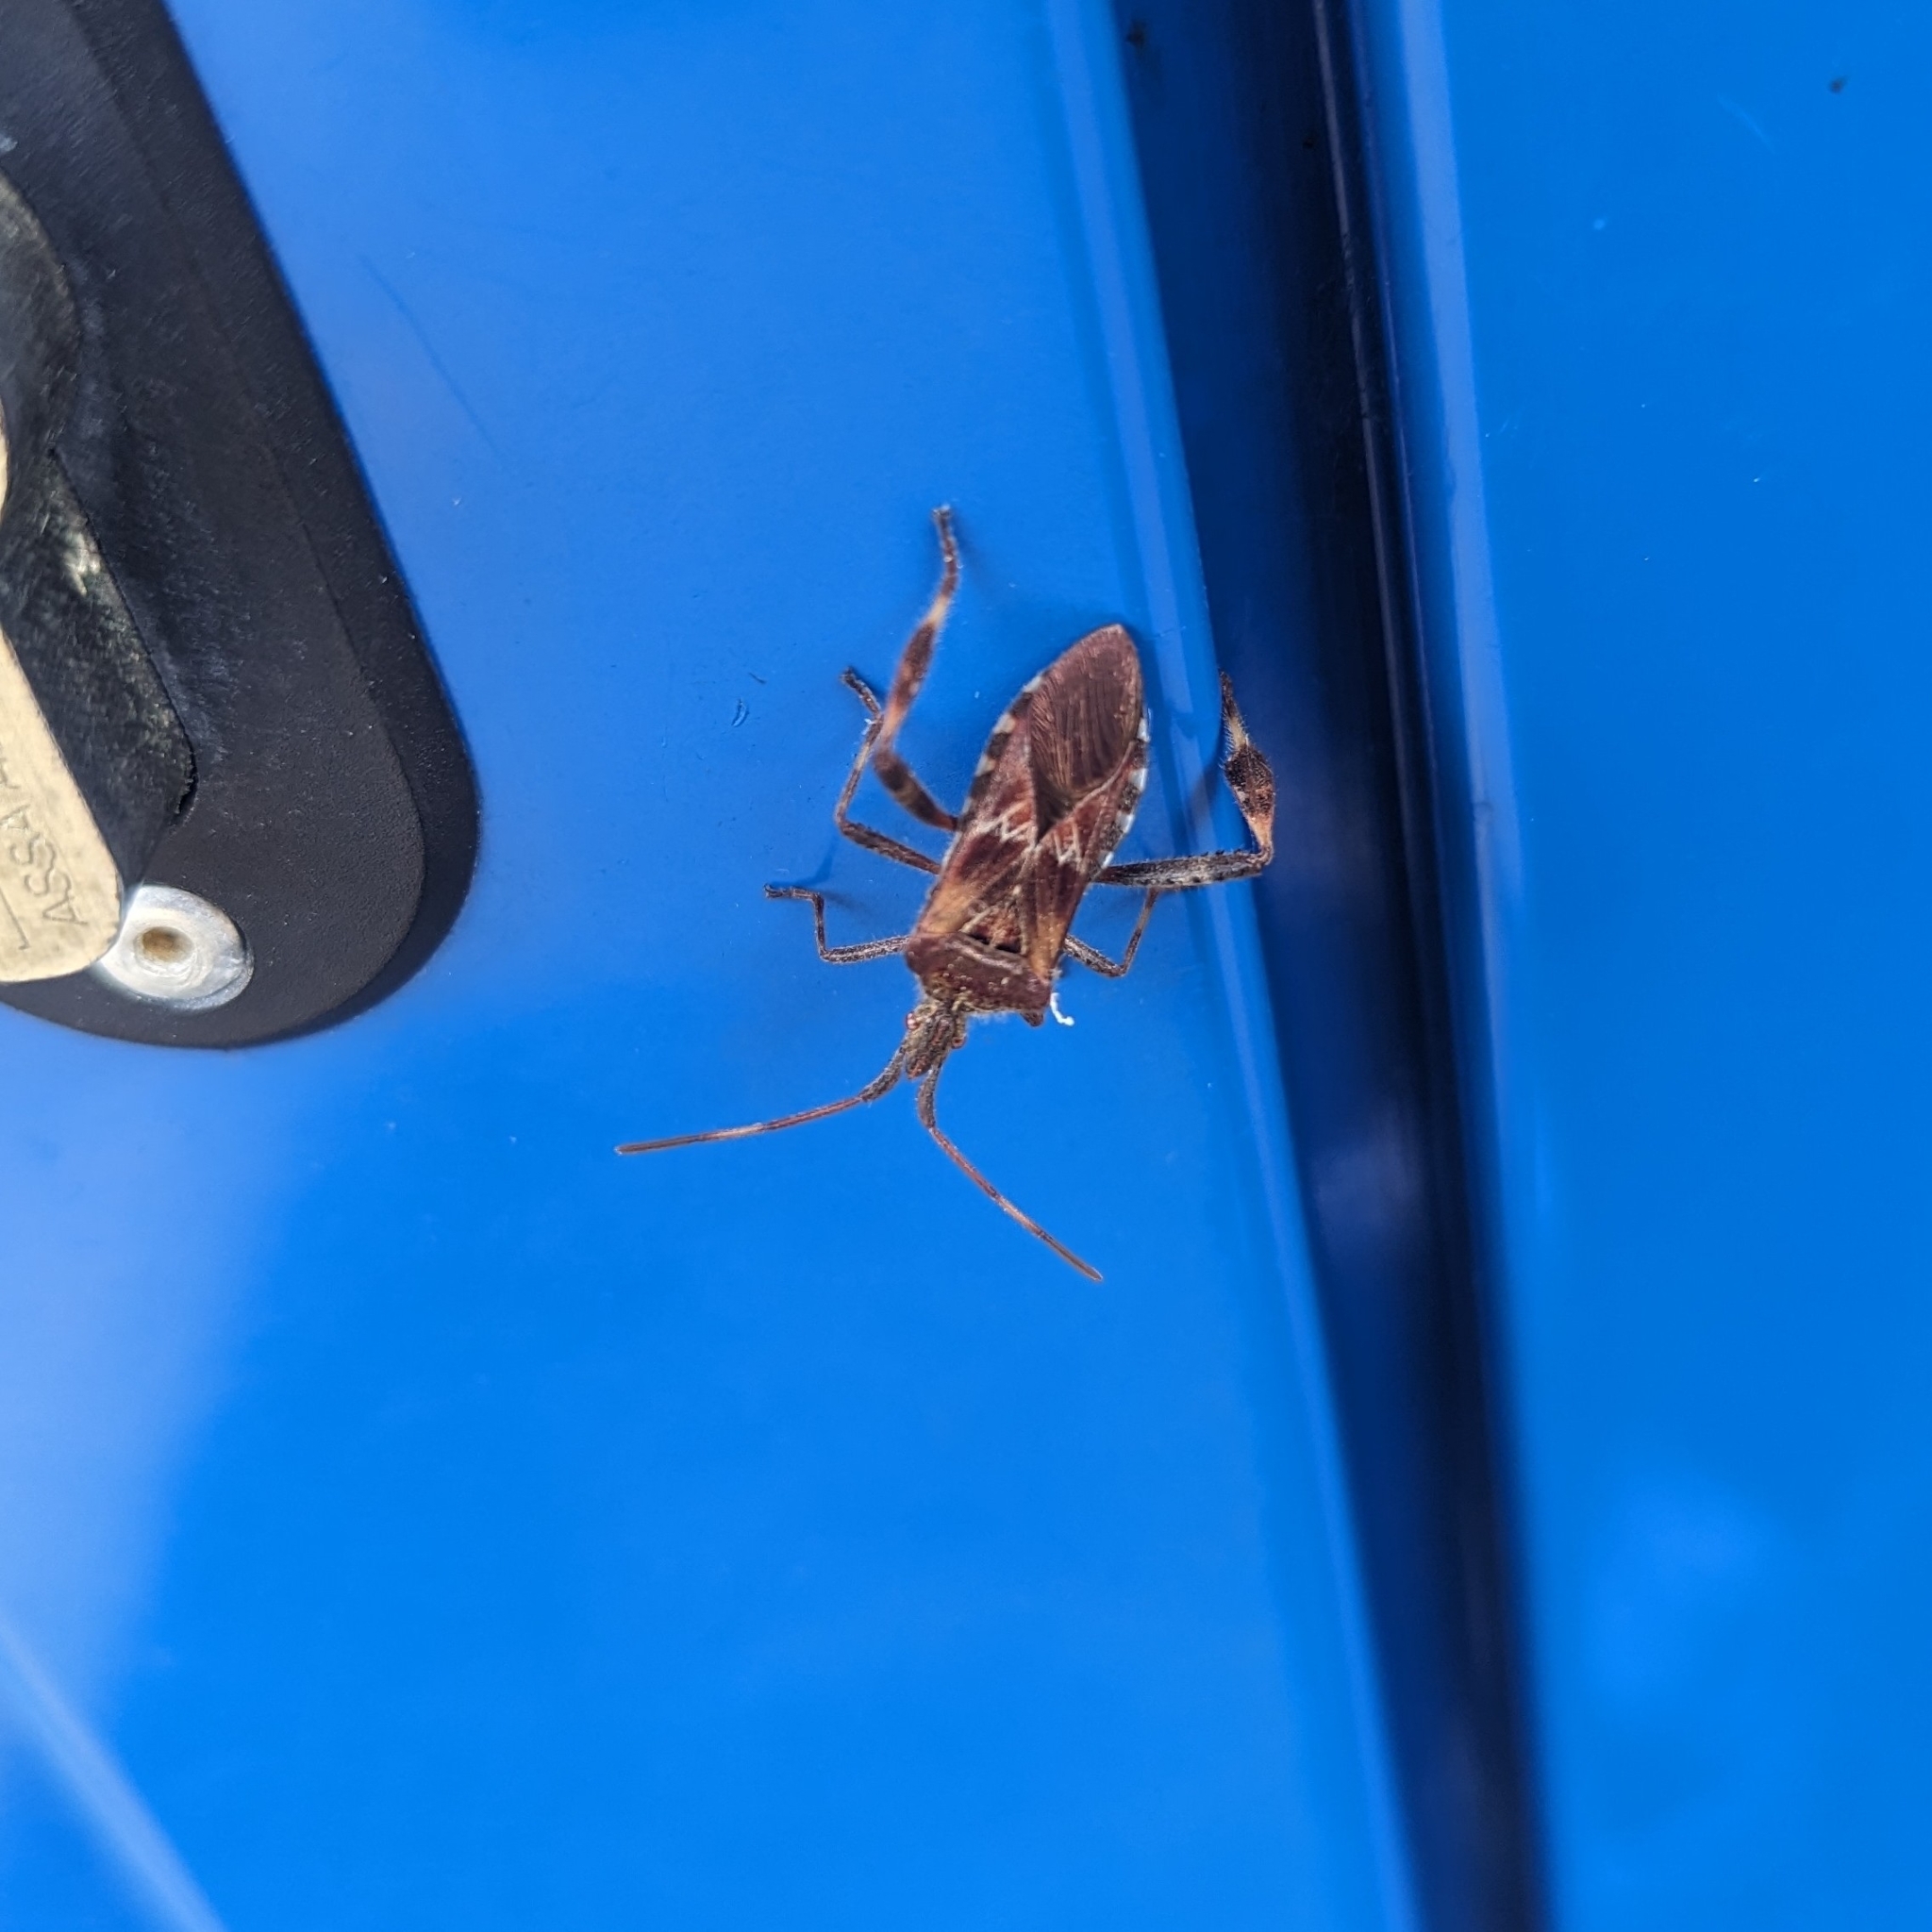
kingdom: Animalia
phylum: Arthropoda
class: Insecta
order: Hemiptera
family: Coreidae
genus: Leptoglossus
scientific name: Leptoglossus occidentalis
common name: Western conifer-seed bug
